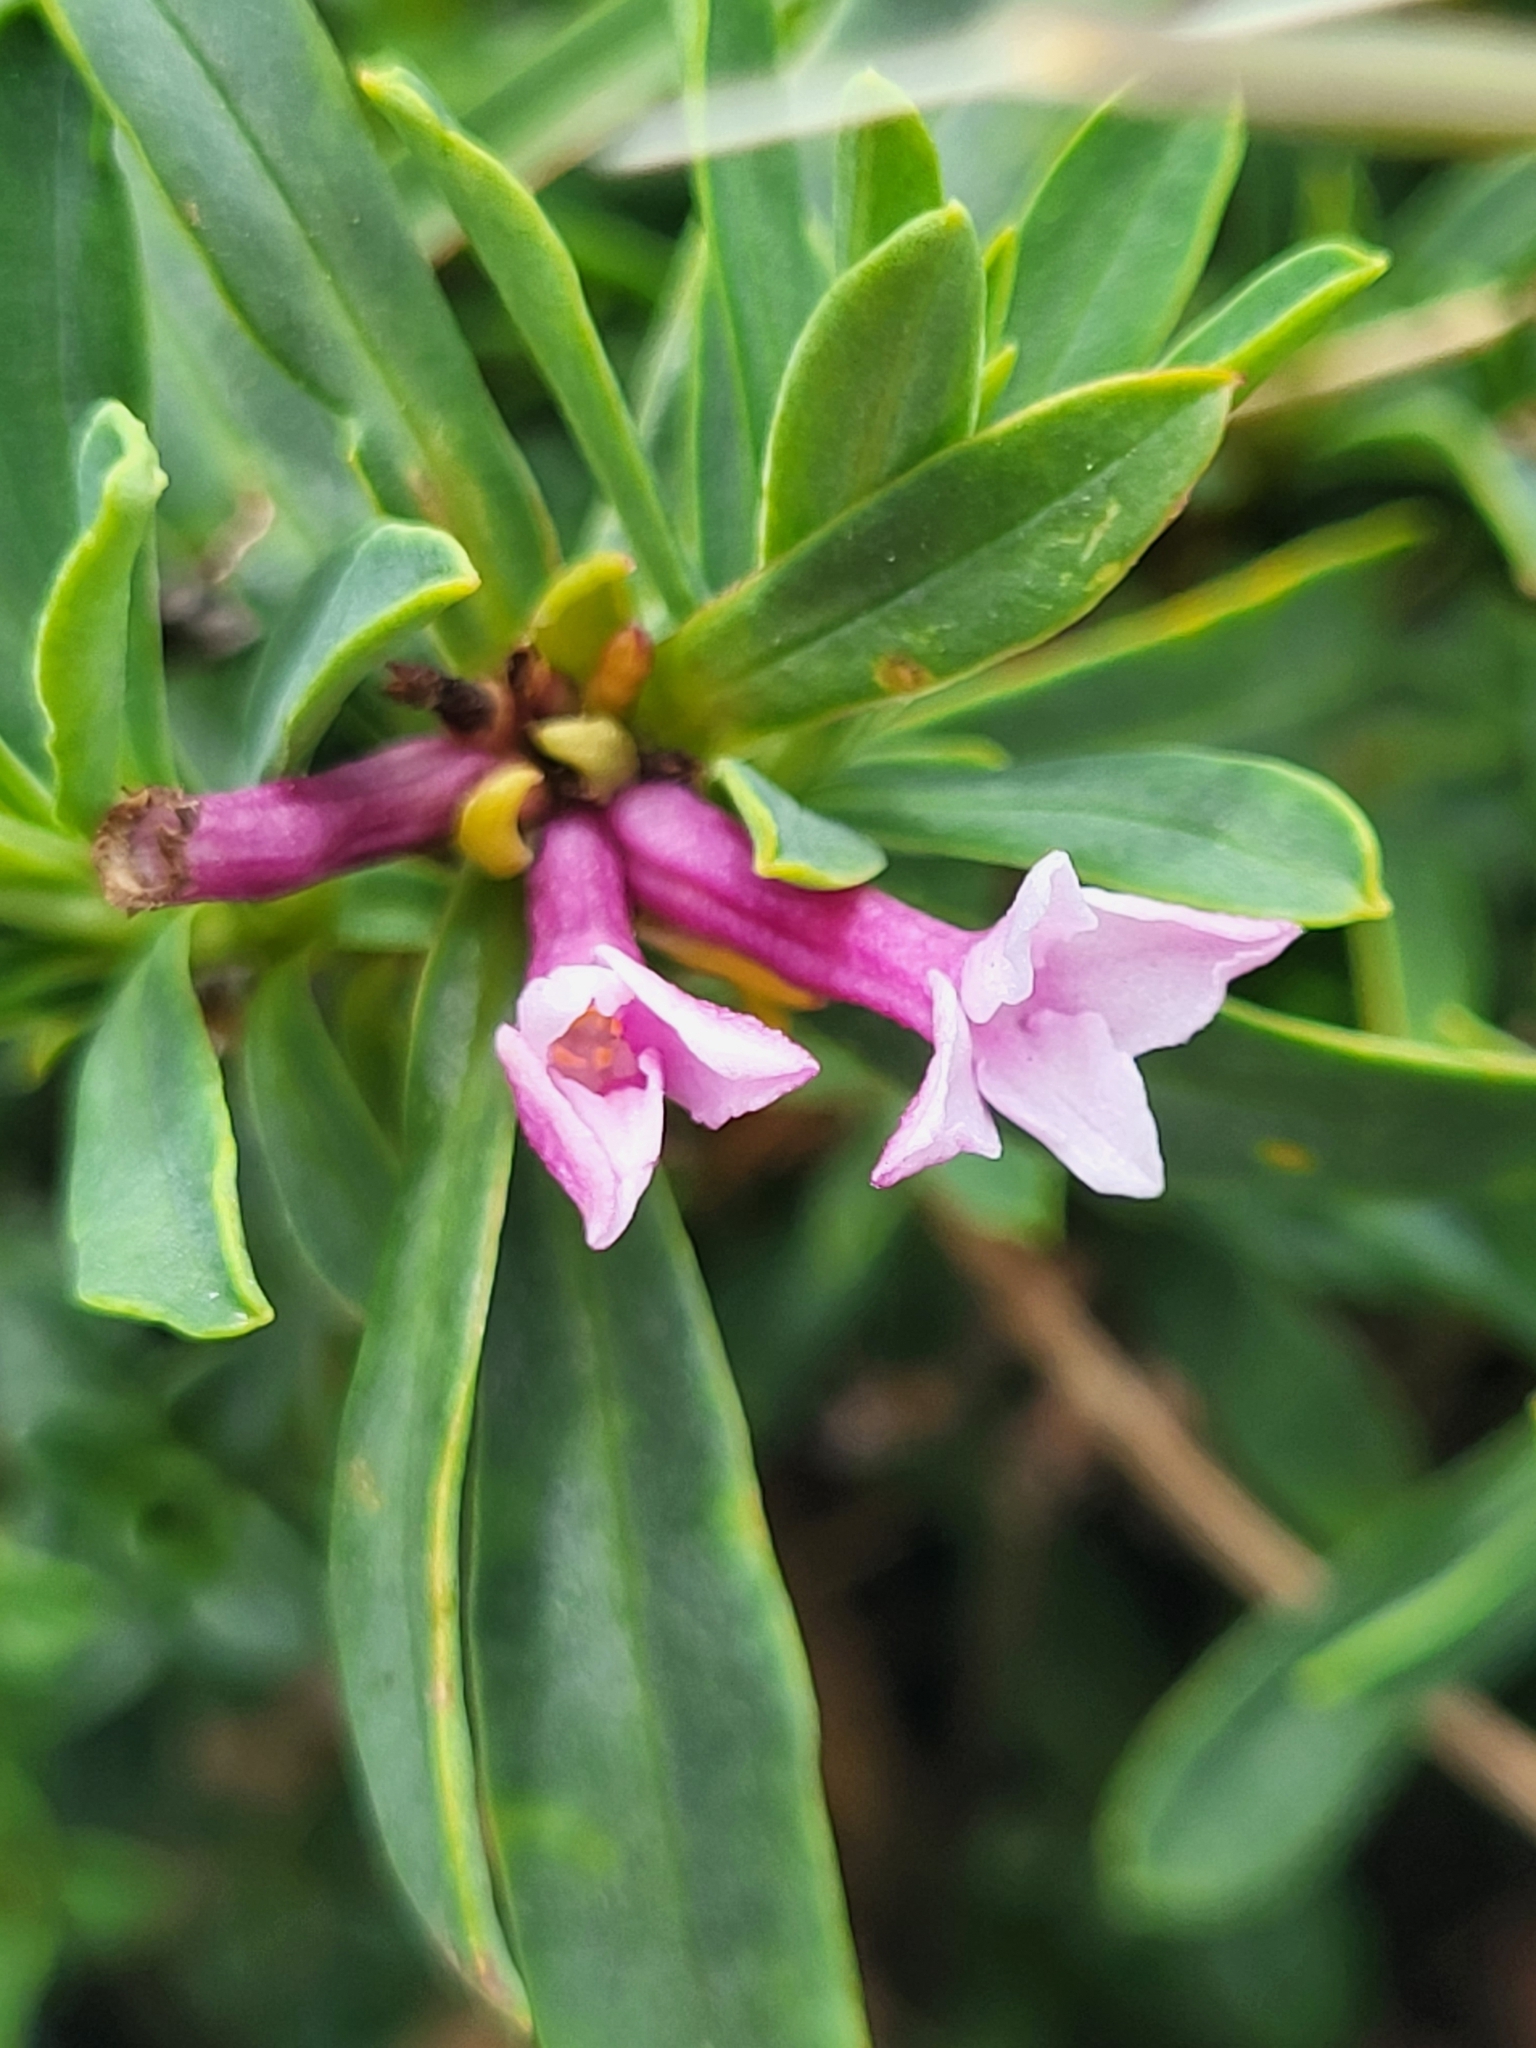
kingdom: Plantae
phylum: Tracheophyta
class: Magnoliopsida
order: Malvales
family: Thymelaeaceae
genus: Daphne
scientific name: Daphne striata
